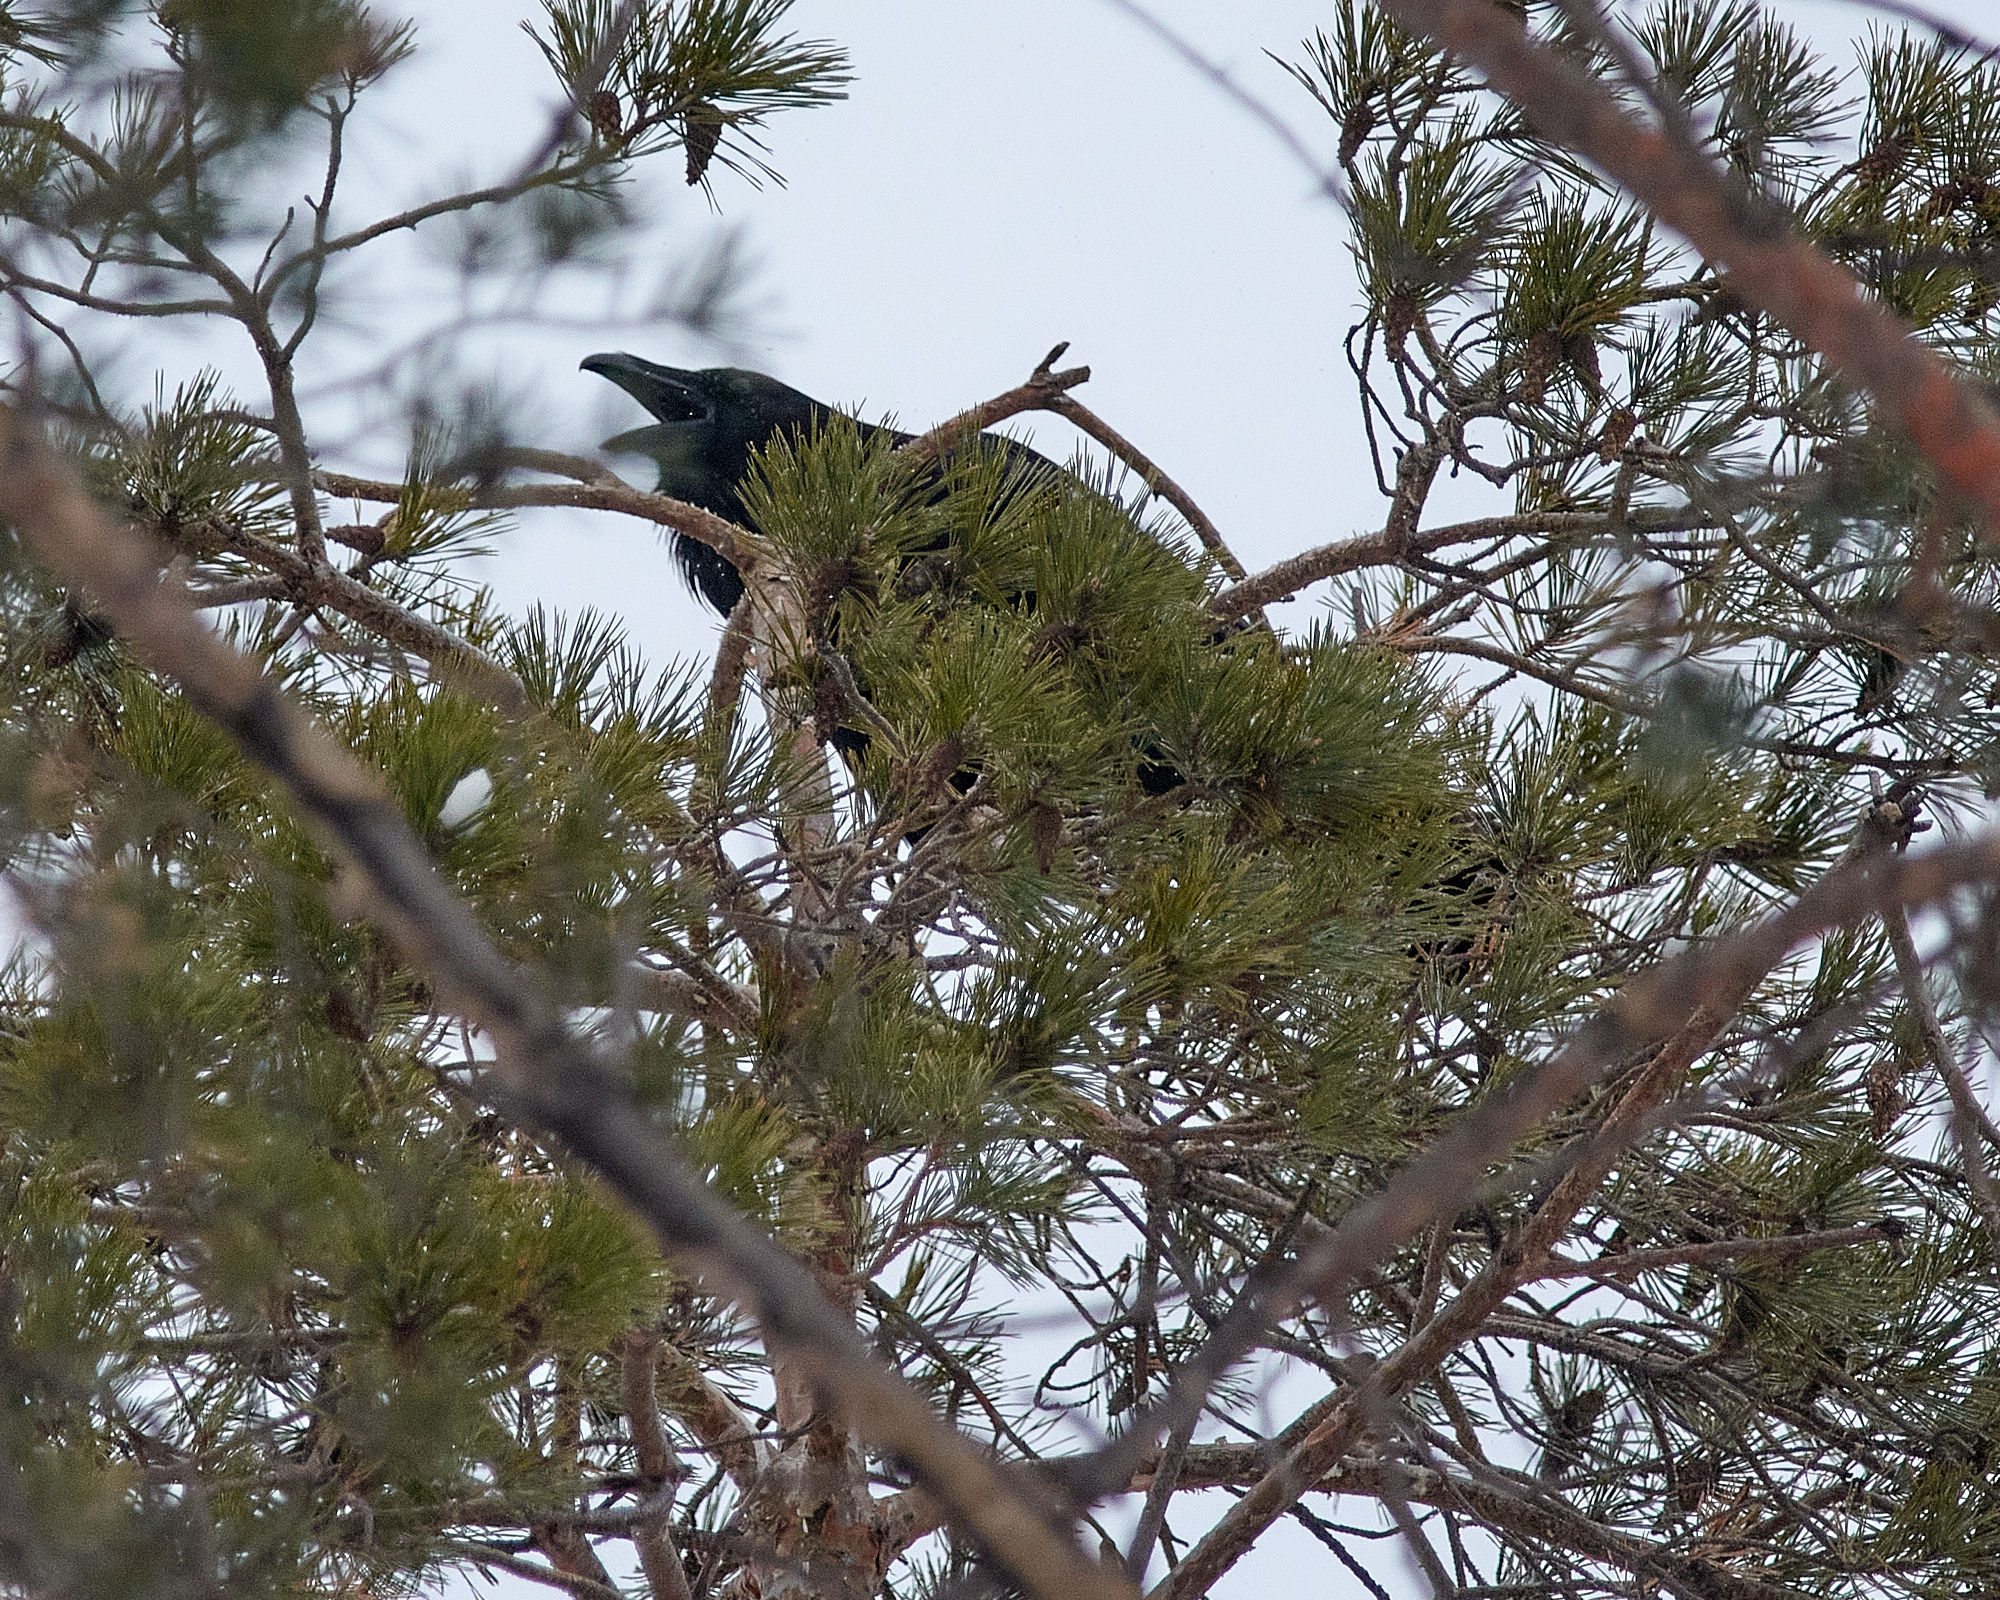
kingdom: Animalia
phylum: Chordata
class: Aves
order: Passeriformes
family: Corvidae
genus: Corvus
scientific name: Corvus corax
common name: Common raven
